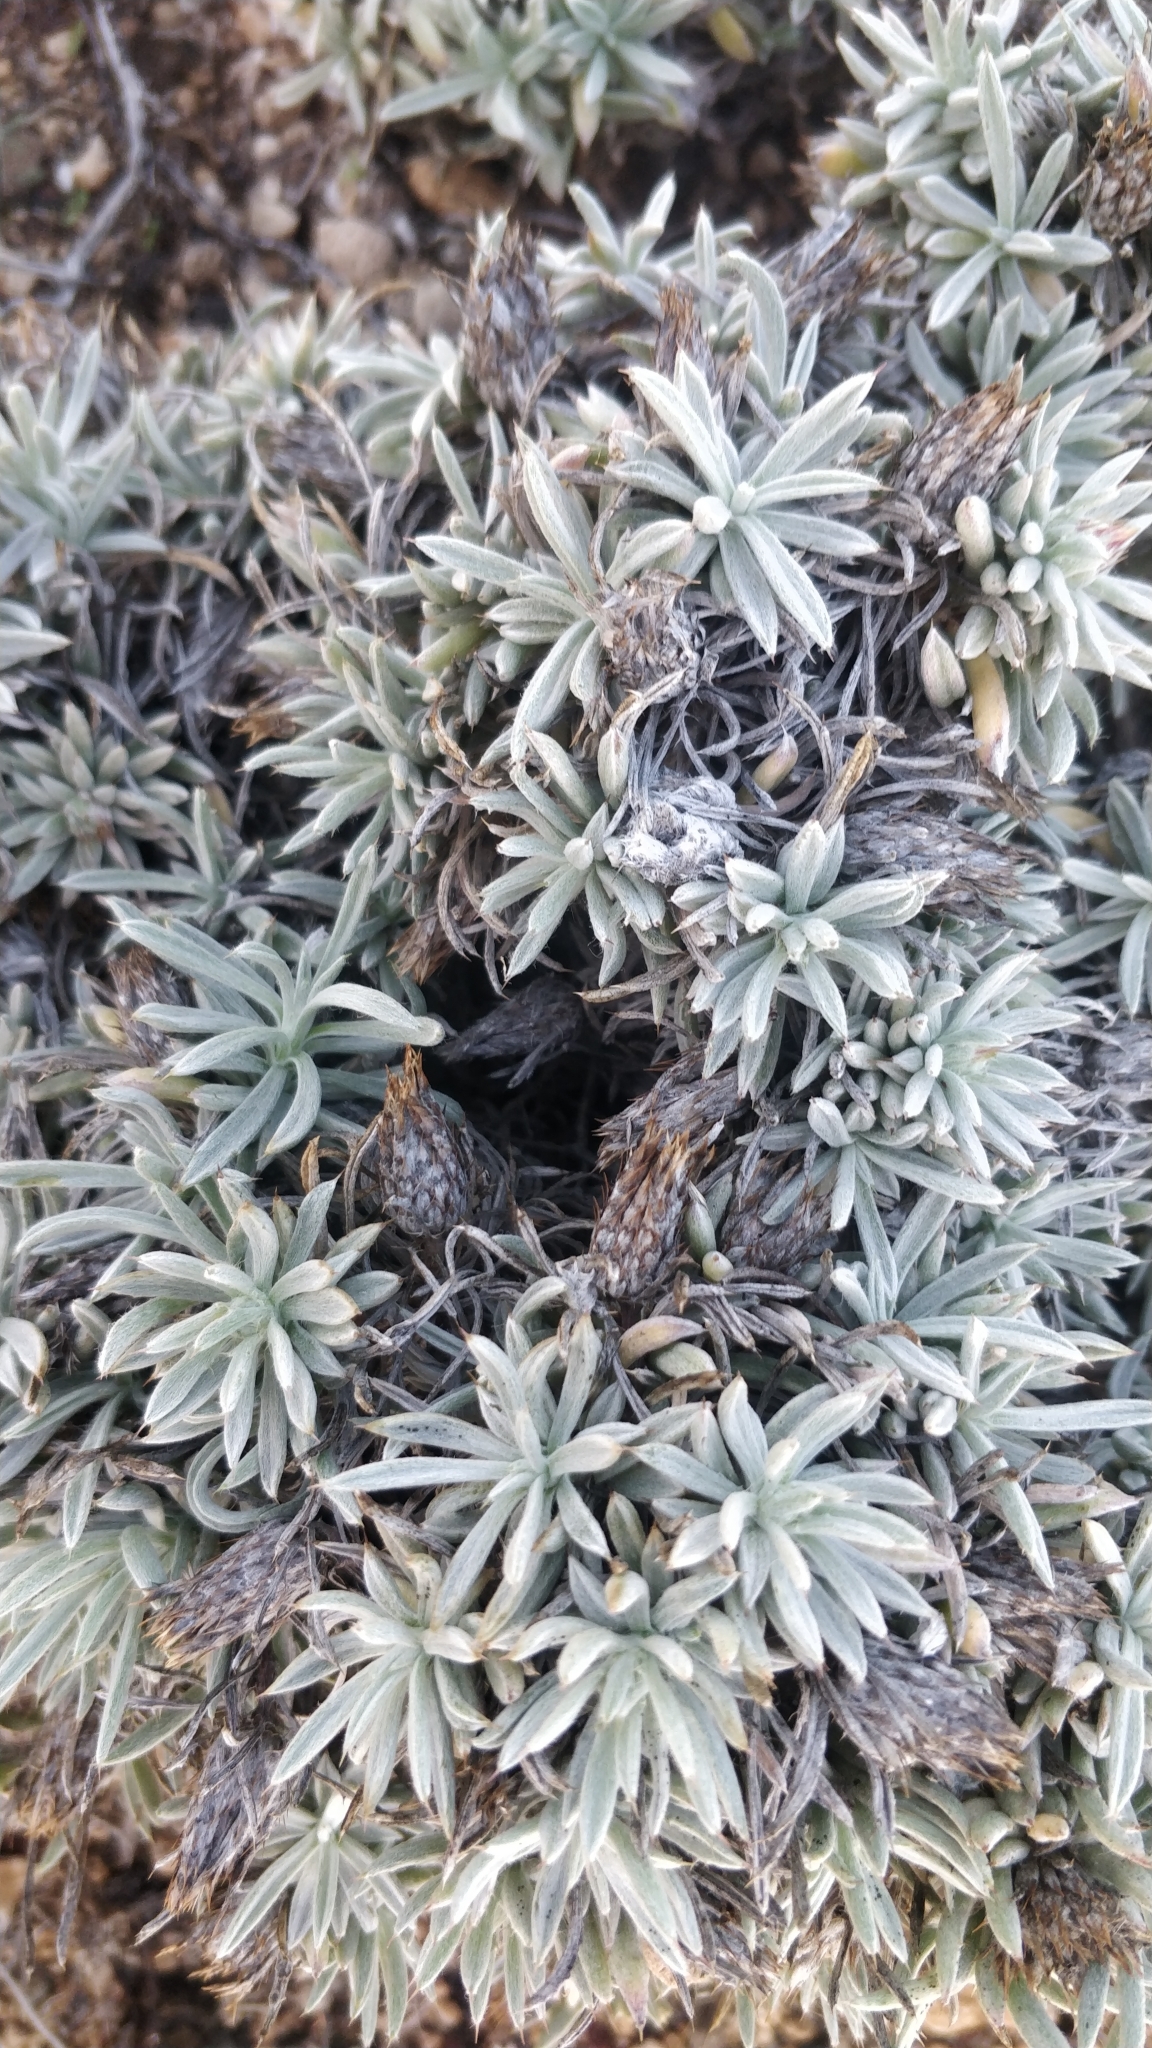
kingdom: Plantae
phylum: Tracheophyta
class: Magnoliopsida
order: Asterales
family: Asteraceae
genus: Atractylis
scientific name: Atractylis preauxiana
